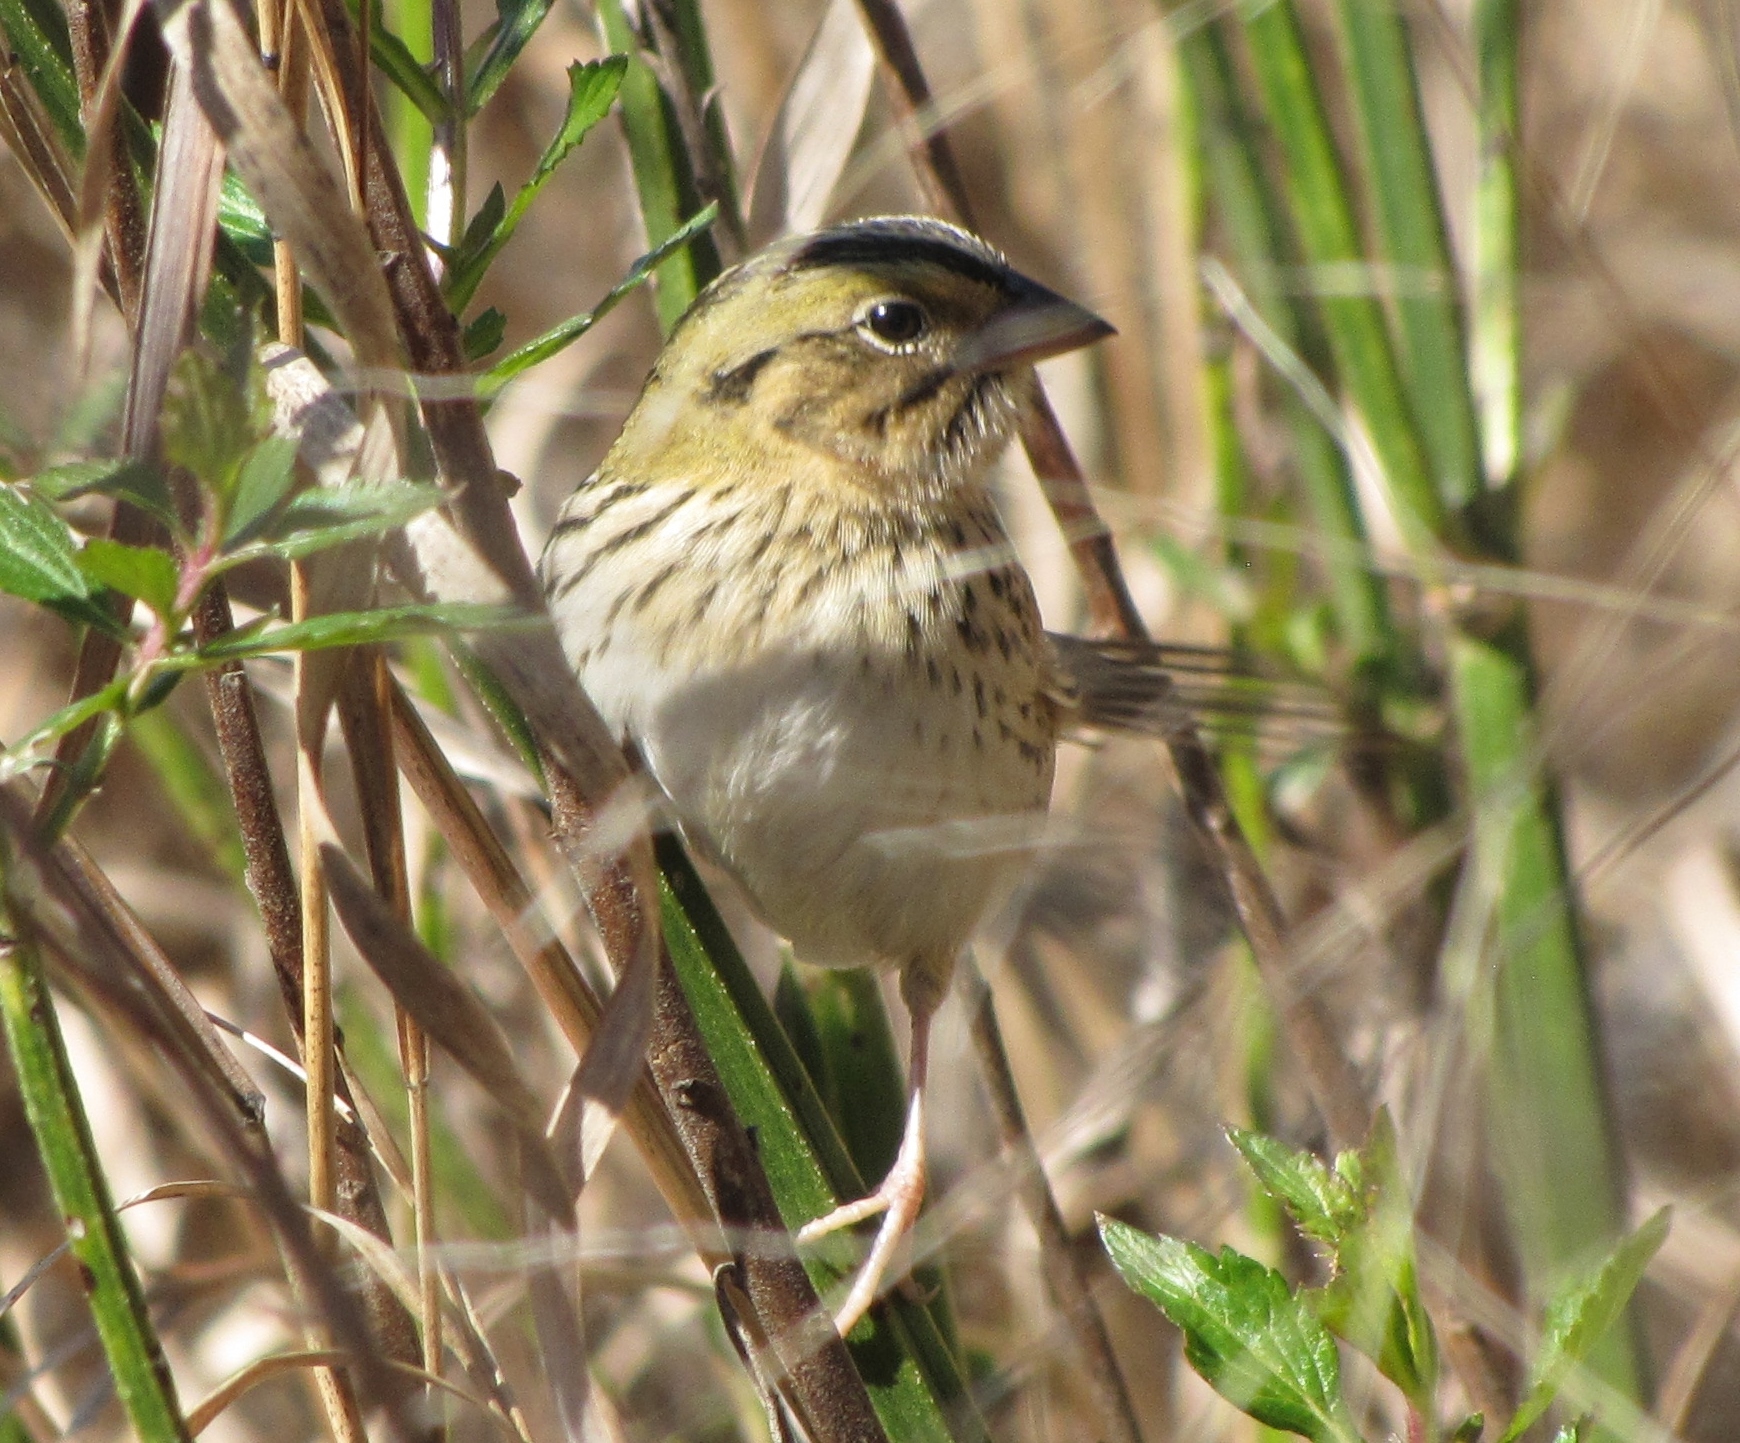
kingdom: Animalia
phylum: Chordata
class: Aves
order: Passeriformes
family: Passerellidae
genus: Centronyx
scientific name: Centronyx henslowii
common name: Henslow's sparrow
